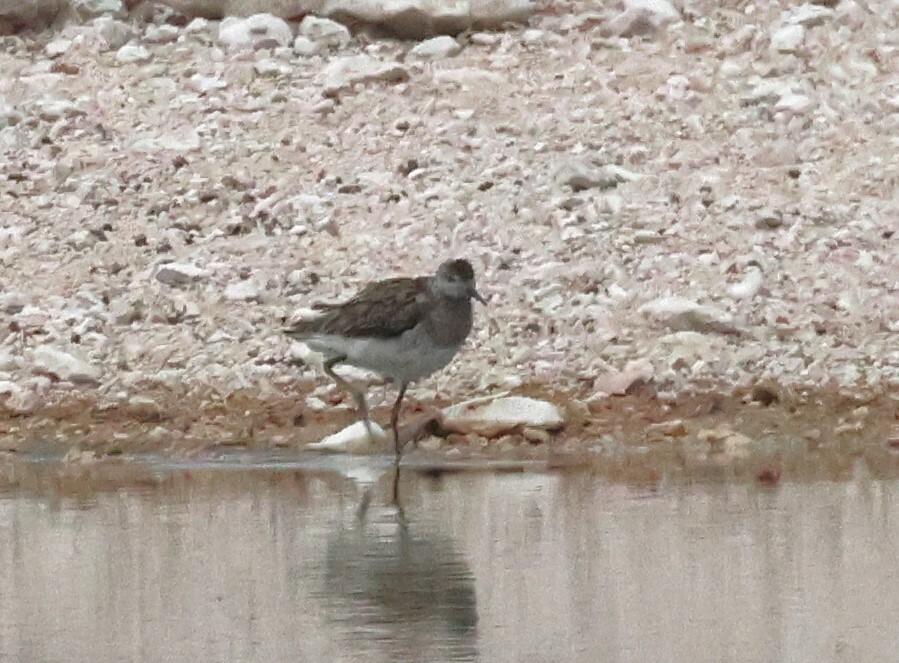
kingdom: Animalia
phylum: Chordata
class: Aves
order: Charadriiformes
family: Scolopacidae
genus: Calidris
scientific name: Calidris pugnax
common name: Ruff
